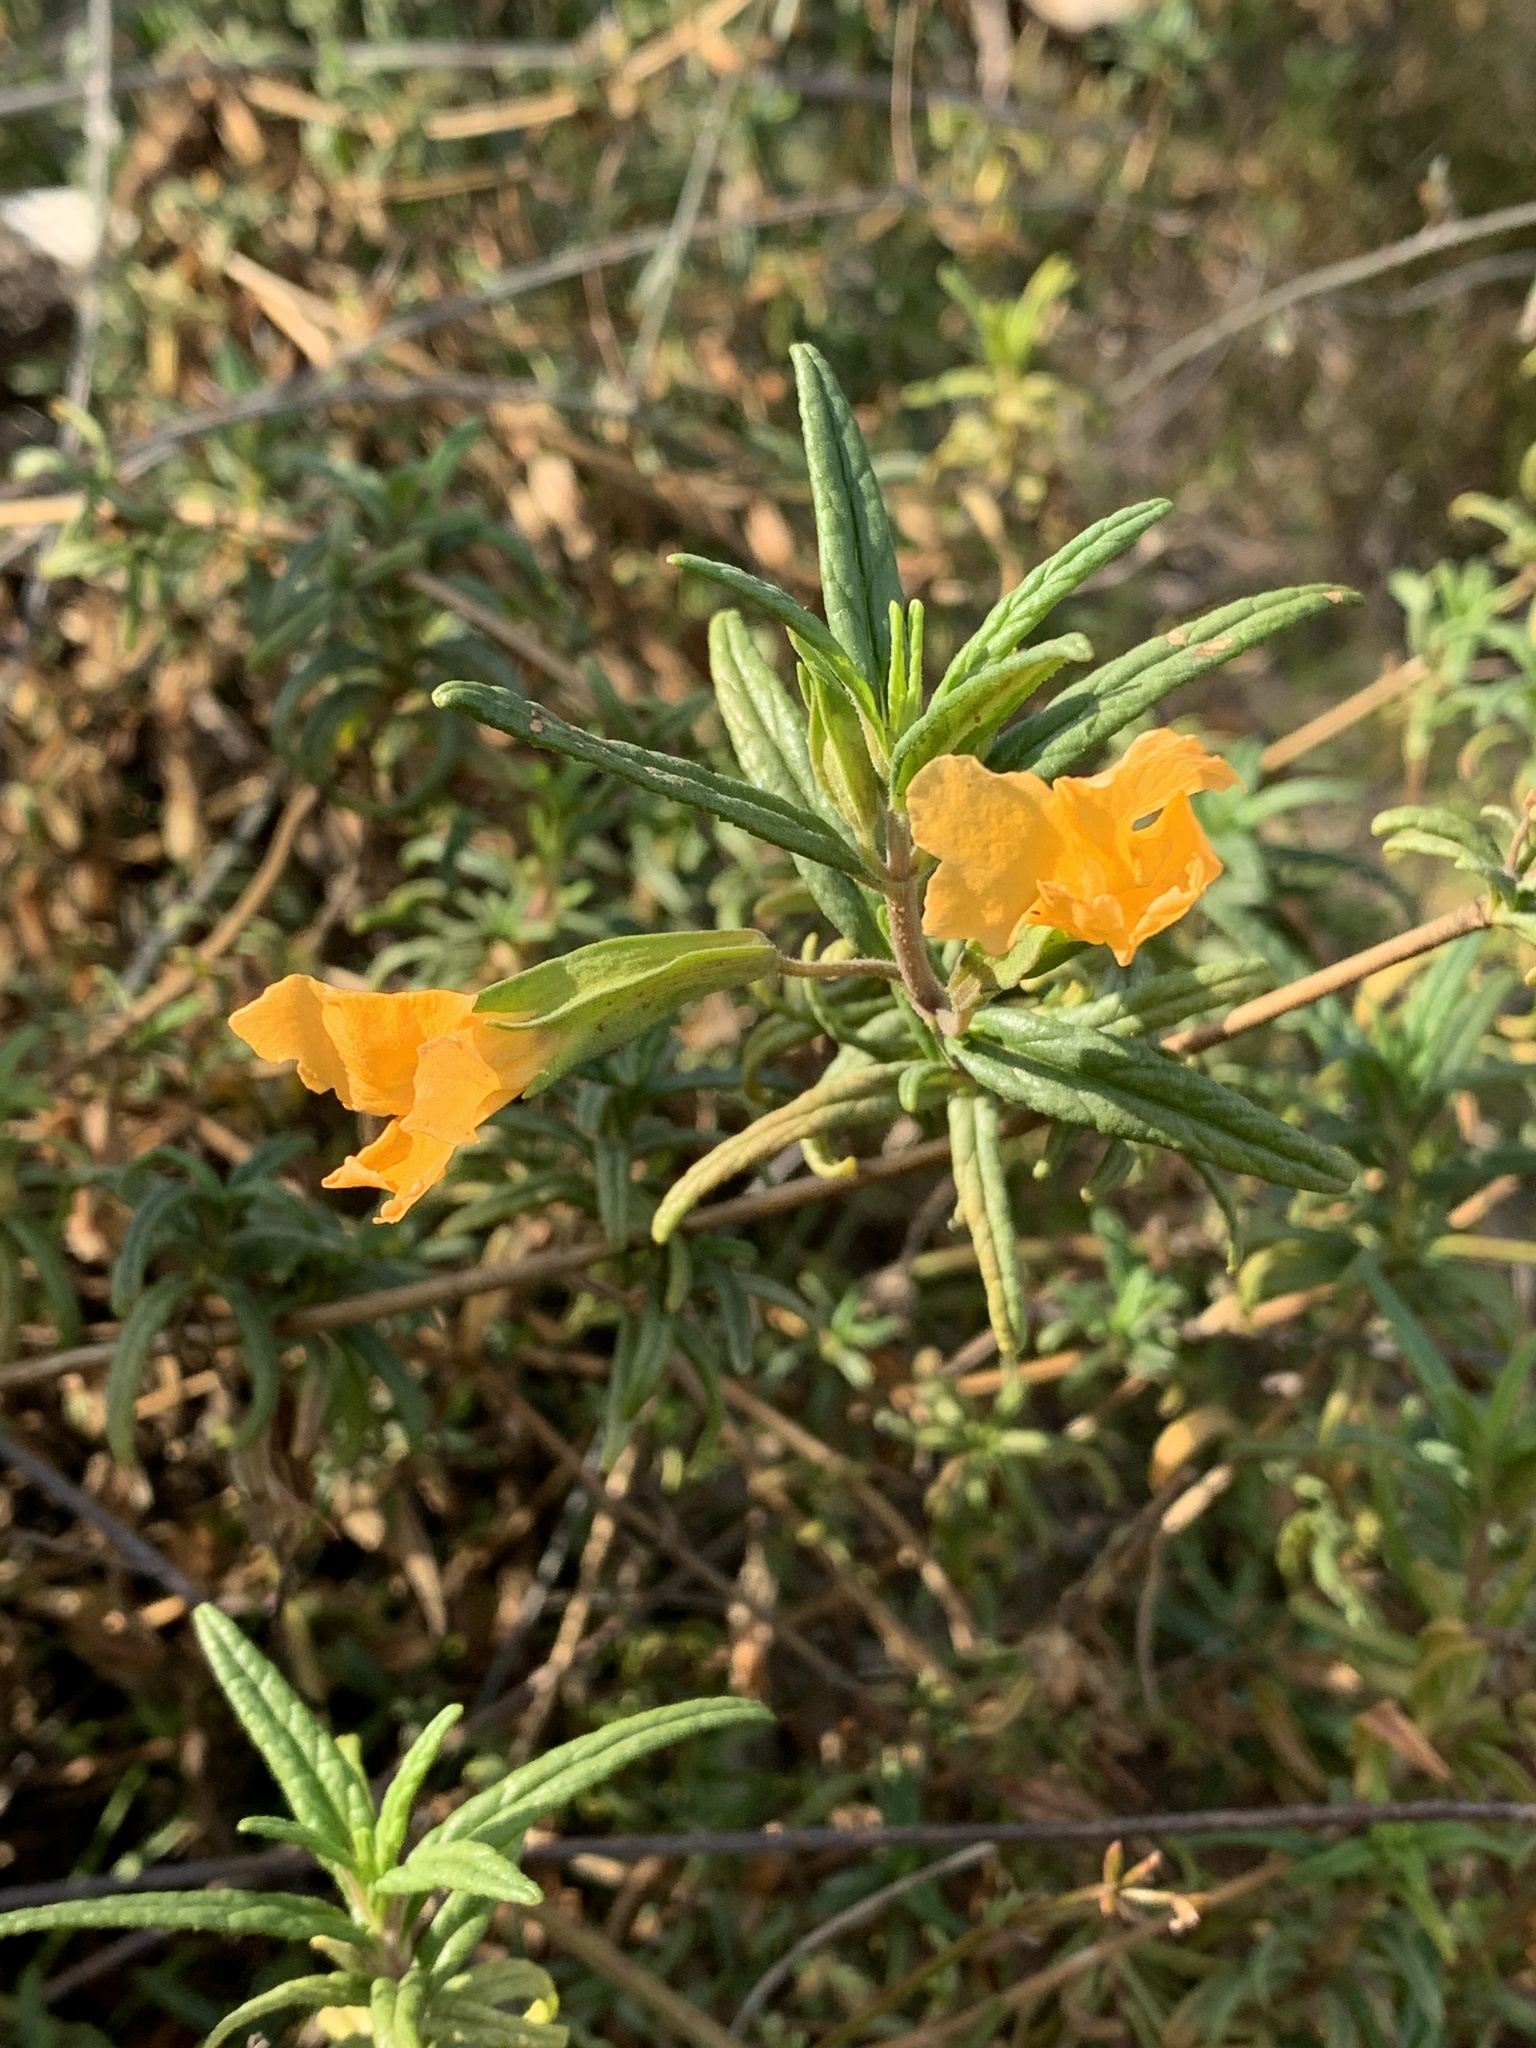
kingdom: Plantae
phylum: Tracheophyta
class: Magnoliopsida
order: Lamiales
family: Phrymaceae
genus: Diplacus
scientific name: Diplacus aurantiacus
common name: Bush monkey-flower
